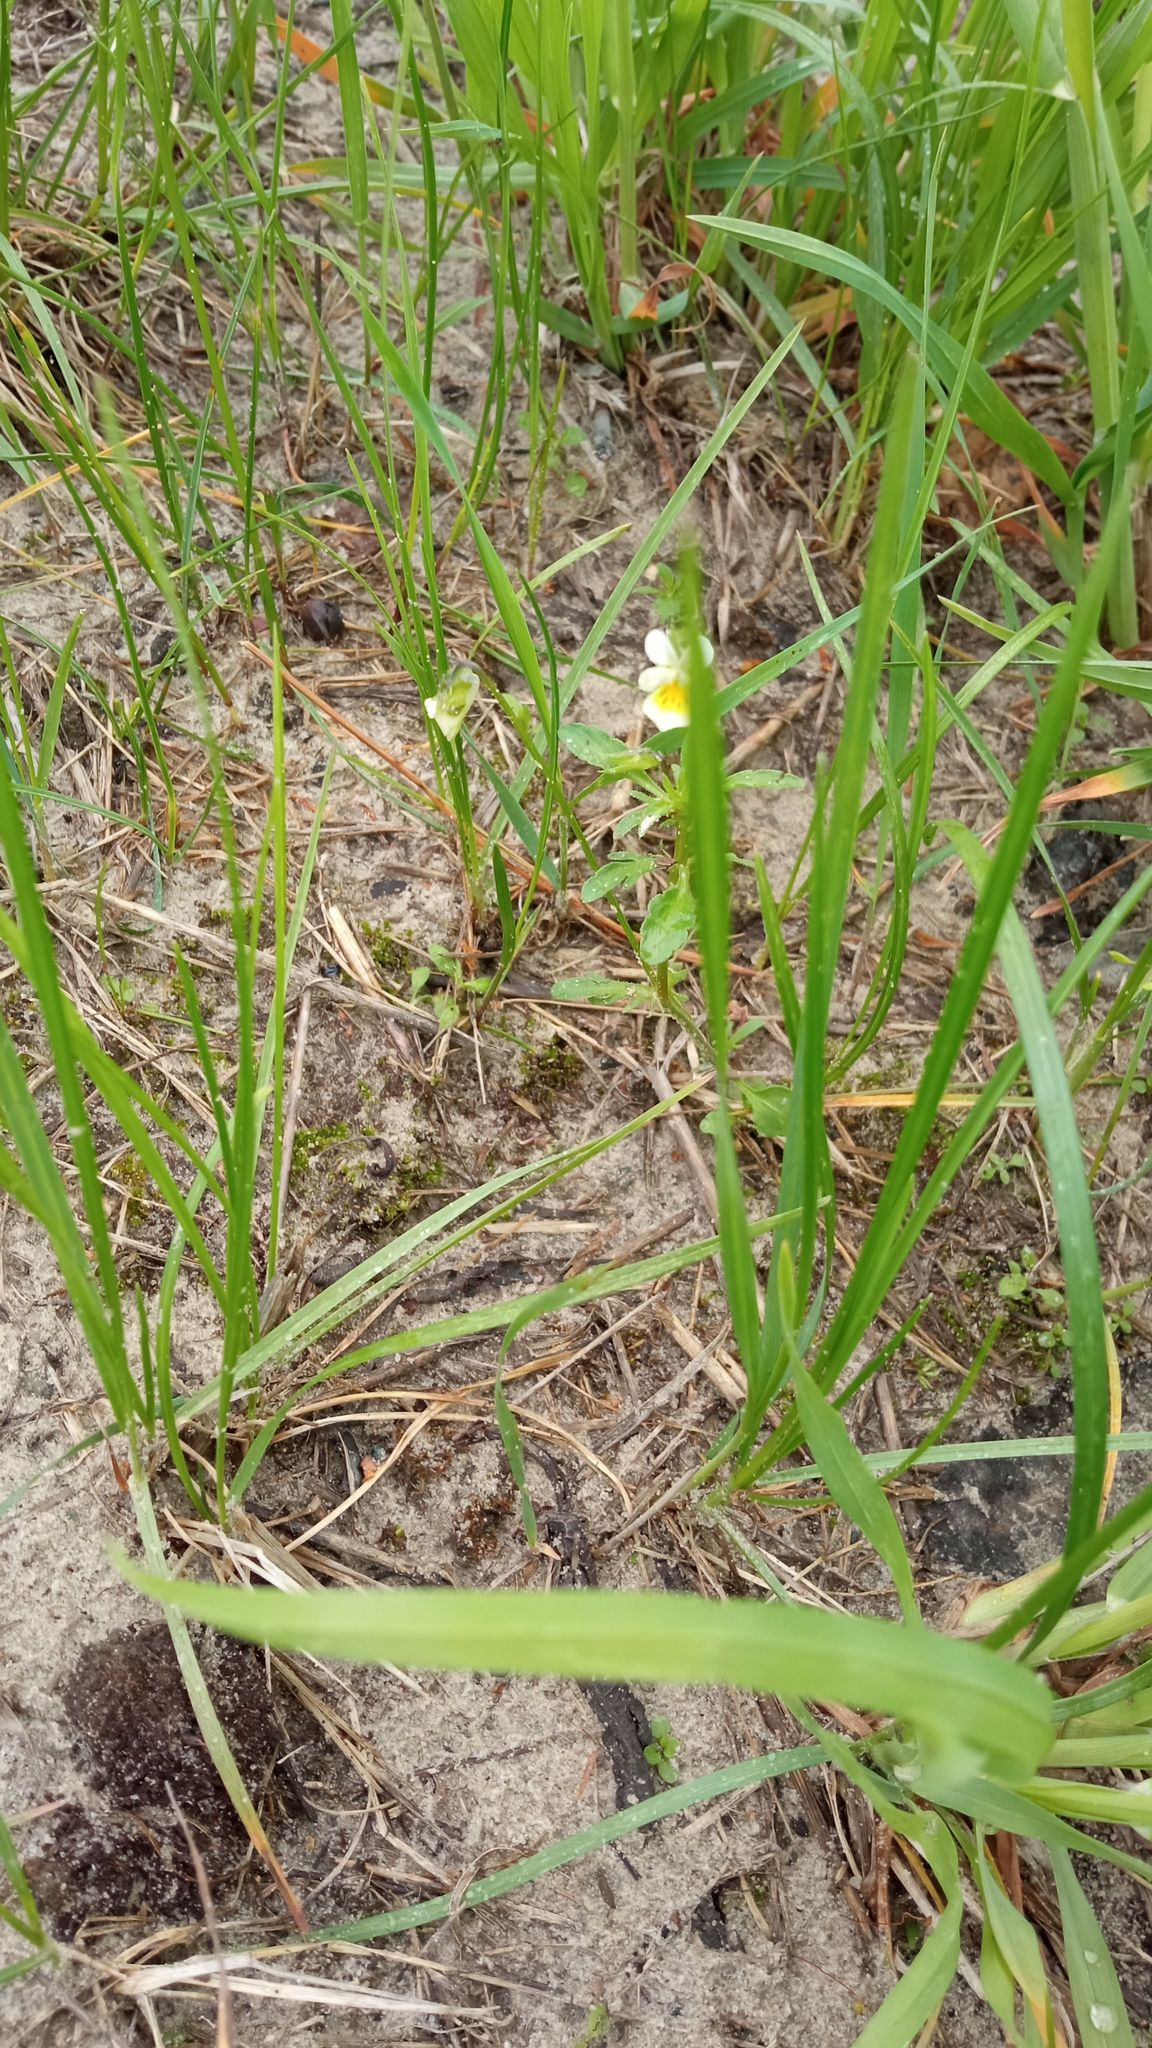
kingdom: Plantae
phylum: Tracheophyta
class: Magnoliopsida
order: Malpighiales
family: Violaceae
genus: Viola
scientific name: Viola arvensis
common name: Field pansy
